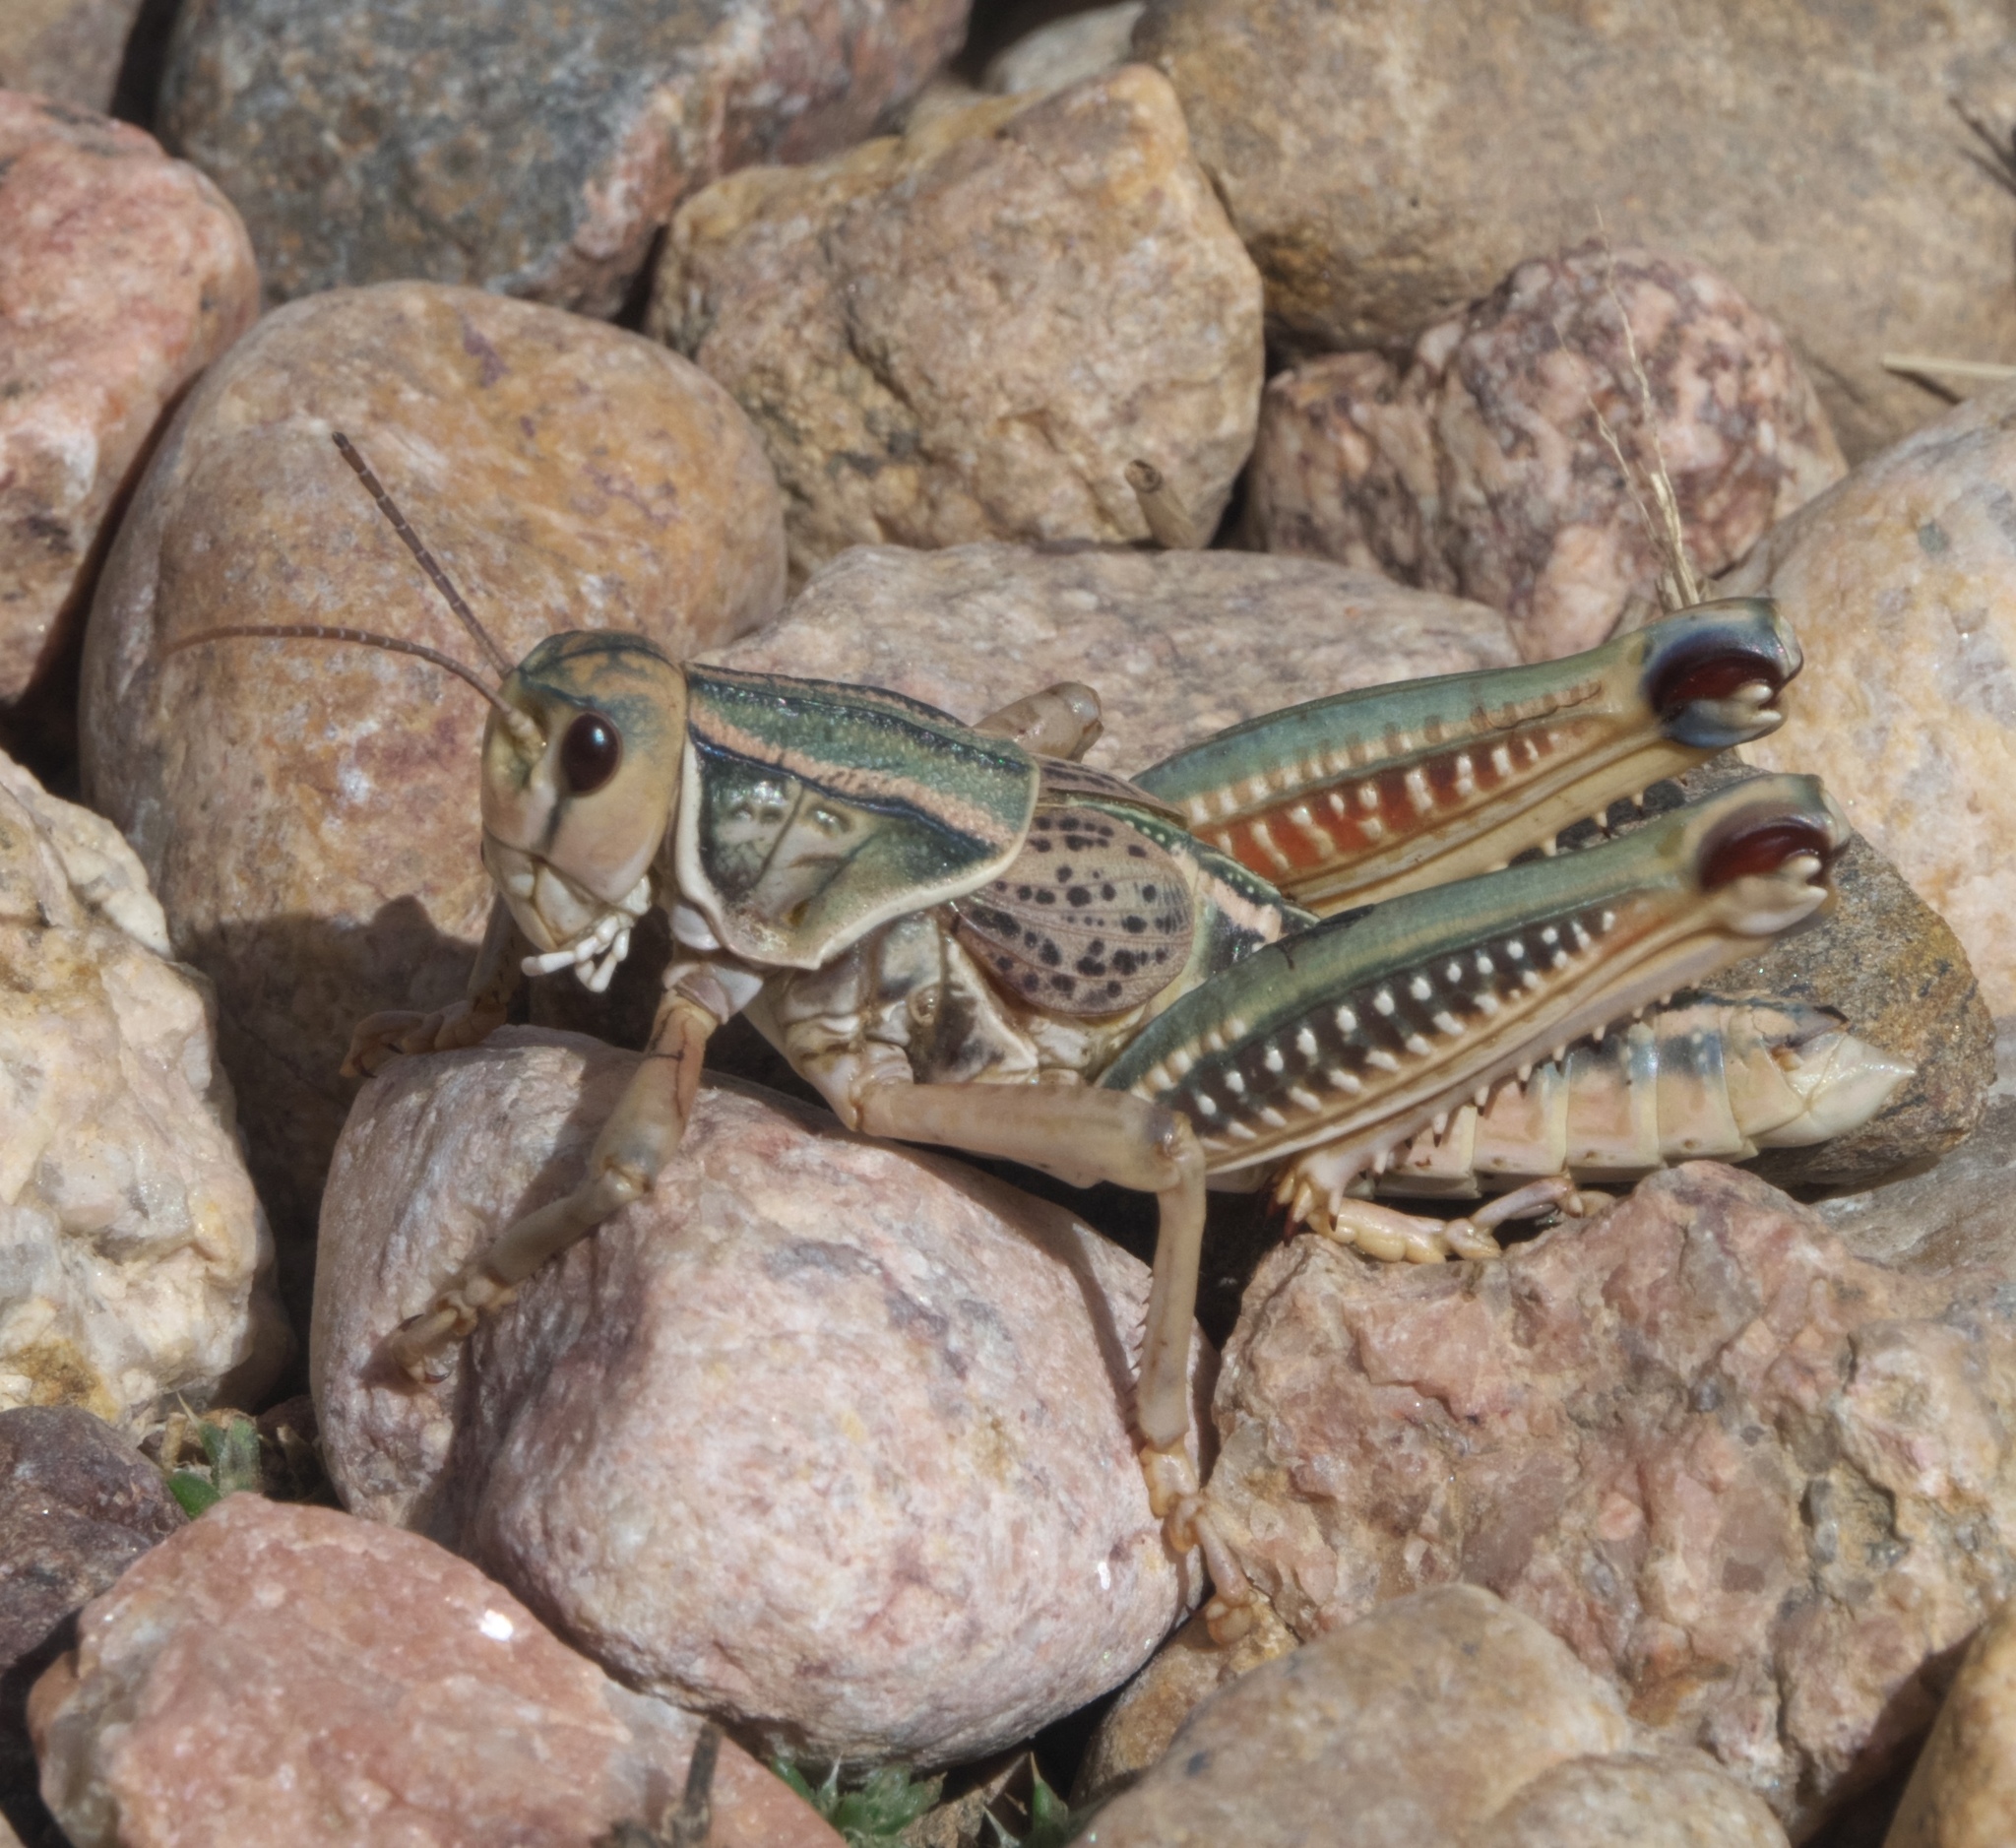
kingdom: Animalia
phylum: Arthropoda
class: Insecta
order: Orthoptera
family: Romaleidae
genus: Brachystola
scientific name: Brachystola magna
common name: Plains lubber grasshopper
